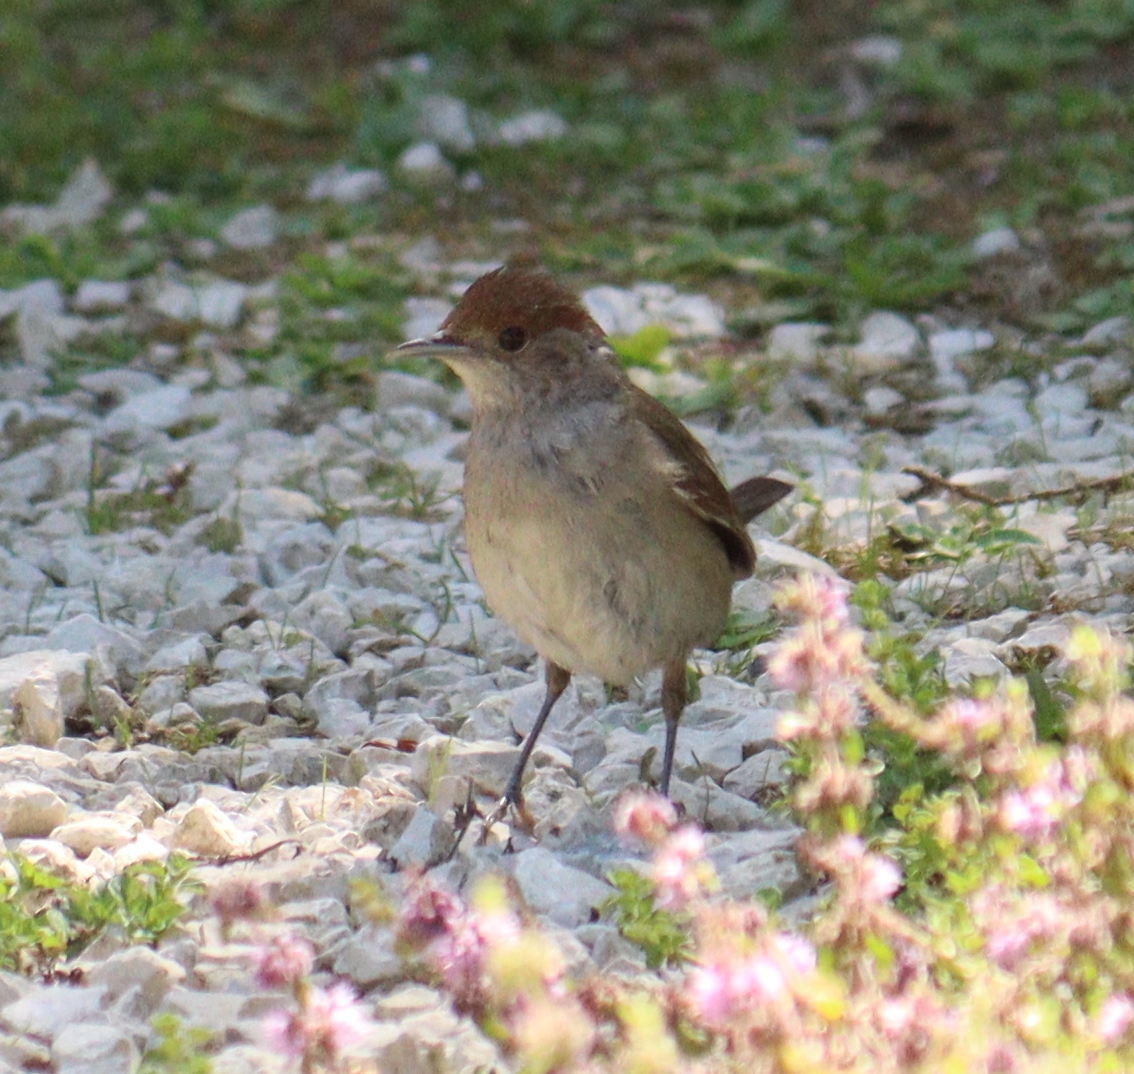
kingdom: Animalia
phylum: Chordata
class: Aves
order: Passeriformes
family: Sylviidae
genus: Sylvia
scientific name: Sylvia atricapilla
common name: Eurasian blackcap
